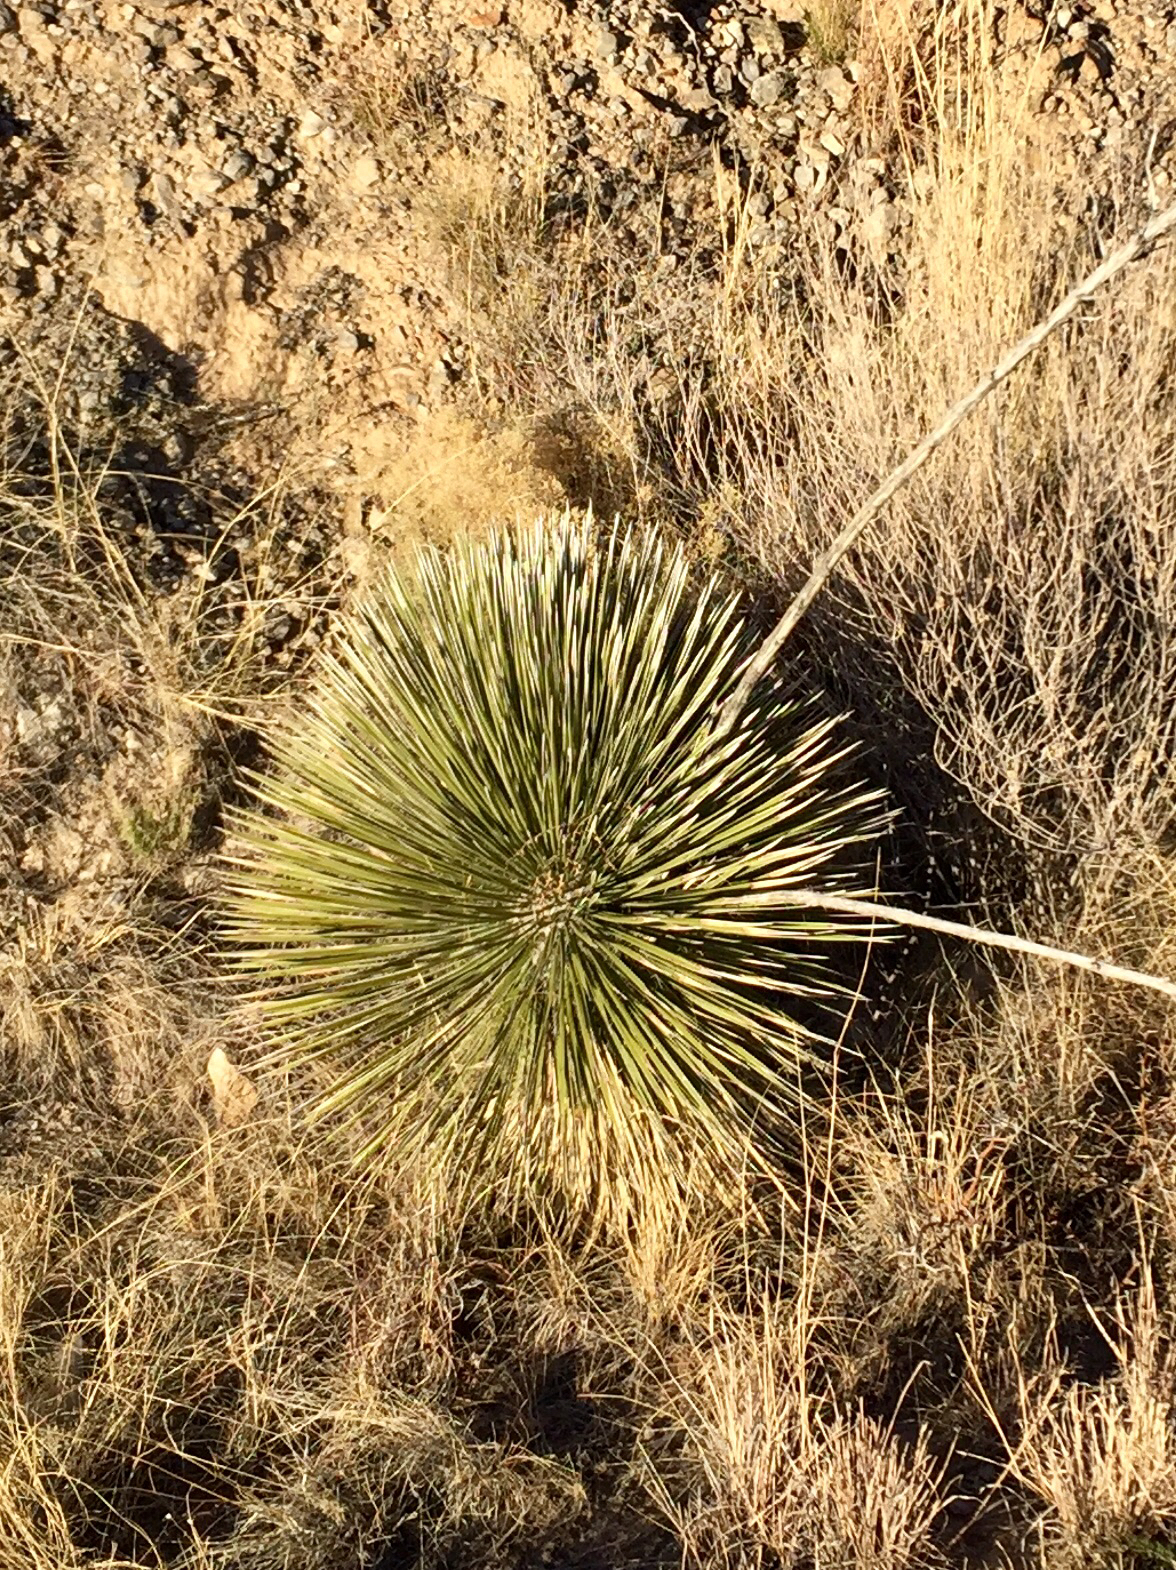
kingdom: Plantae
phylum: Tracheophyta
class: Liliopsida
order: Asparagales
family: Asparagaceae
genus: Yucca
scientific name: Yucca elata
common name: Palmella
